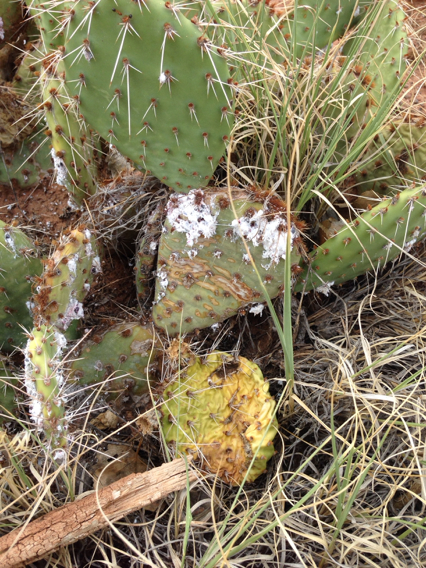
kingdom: Animalia
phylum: Arthropoda
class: Insecta
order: Hemiptera
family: Dactylopiidae
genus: Dactylopius
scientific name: Dactylopius
